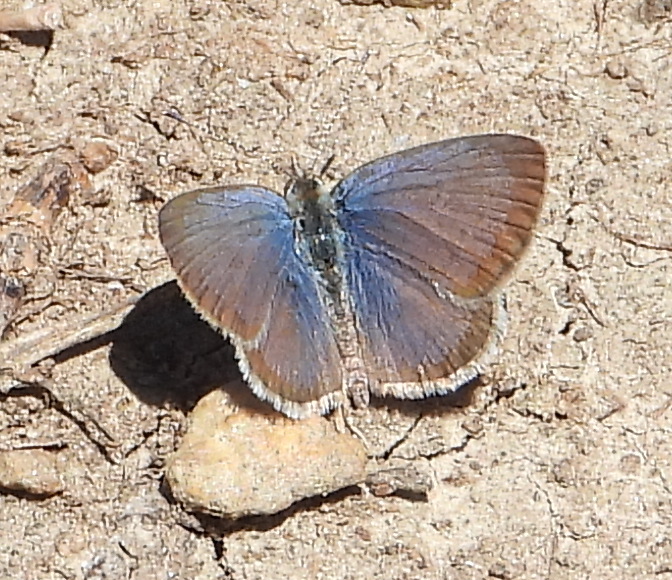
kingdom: Animalia
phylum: Arthropoda
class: Insecta
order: Lepidoptera
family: Lycaenidae
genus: Zizeeria
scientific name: Zizeeria knysna
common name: African grass blue
